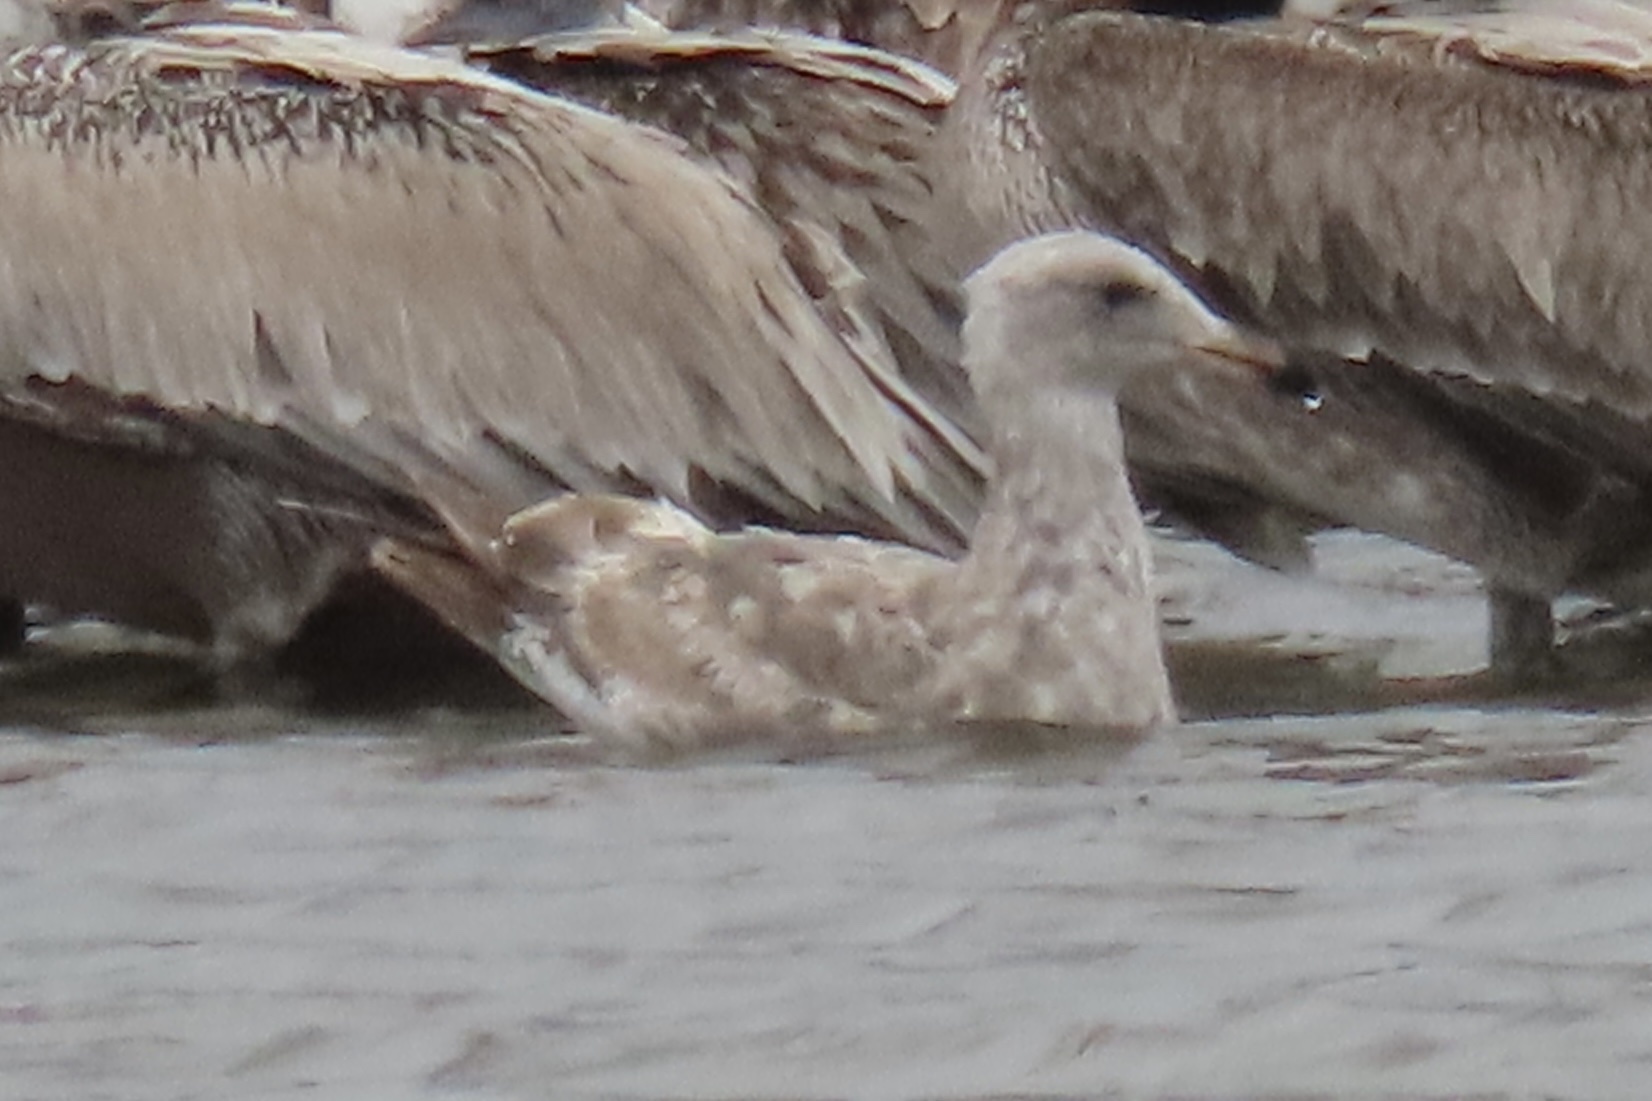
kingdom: Animalia
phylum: Chordata
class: Aves
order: Charadriiformes
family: Laridae
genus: Larus
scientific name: Larus occidentalis
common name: Western gull
